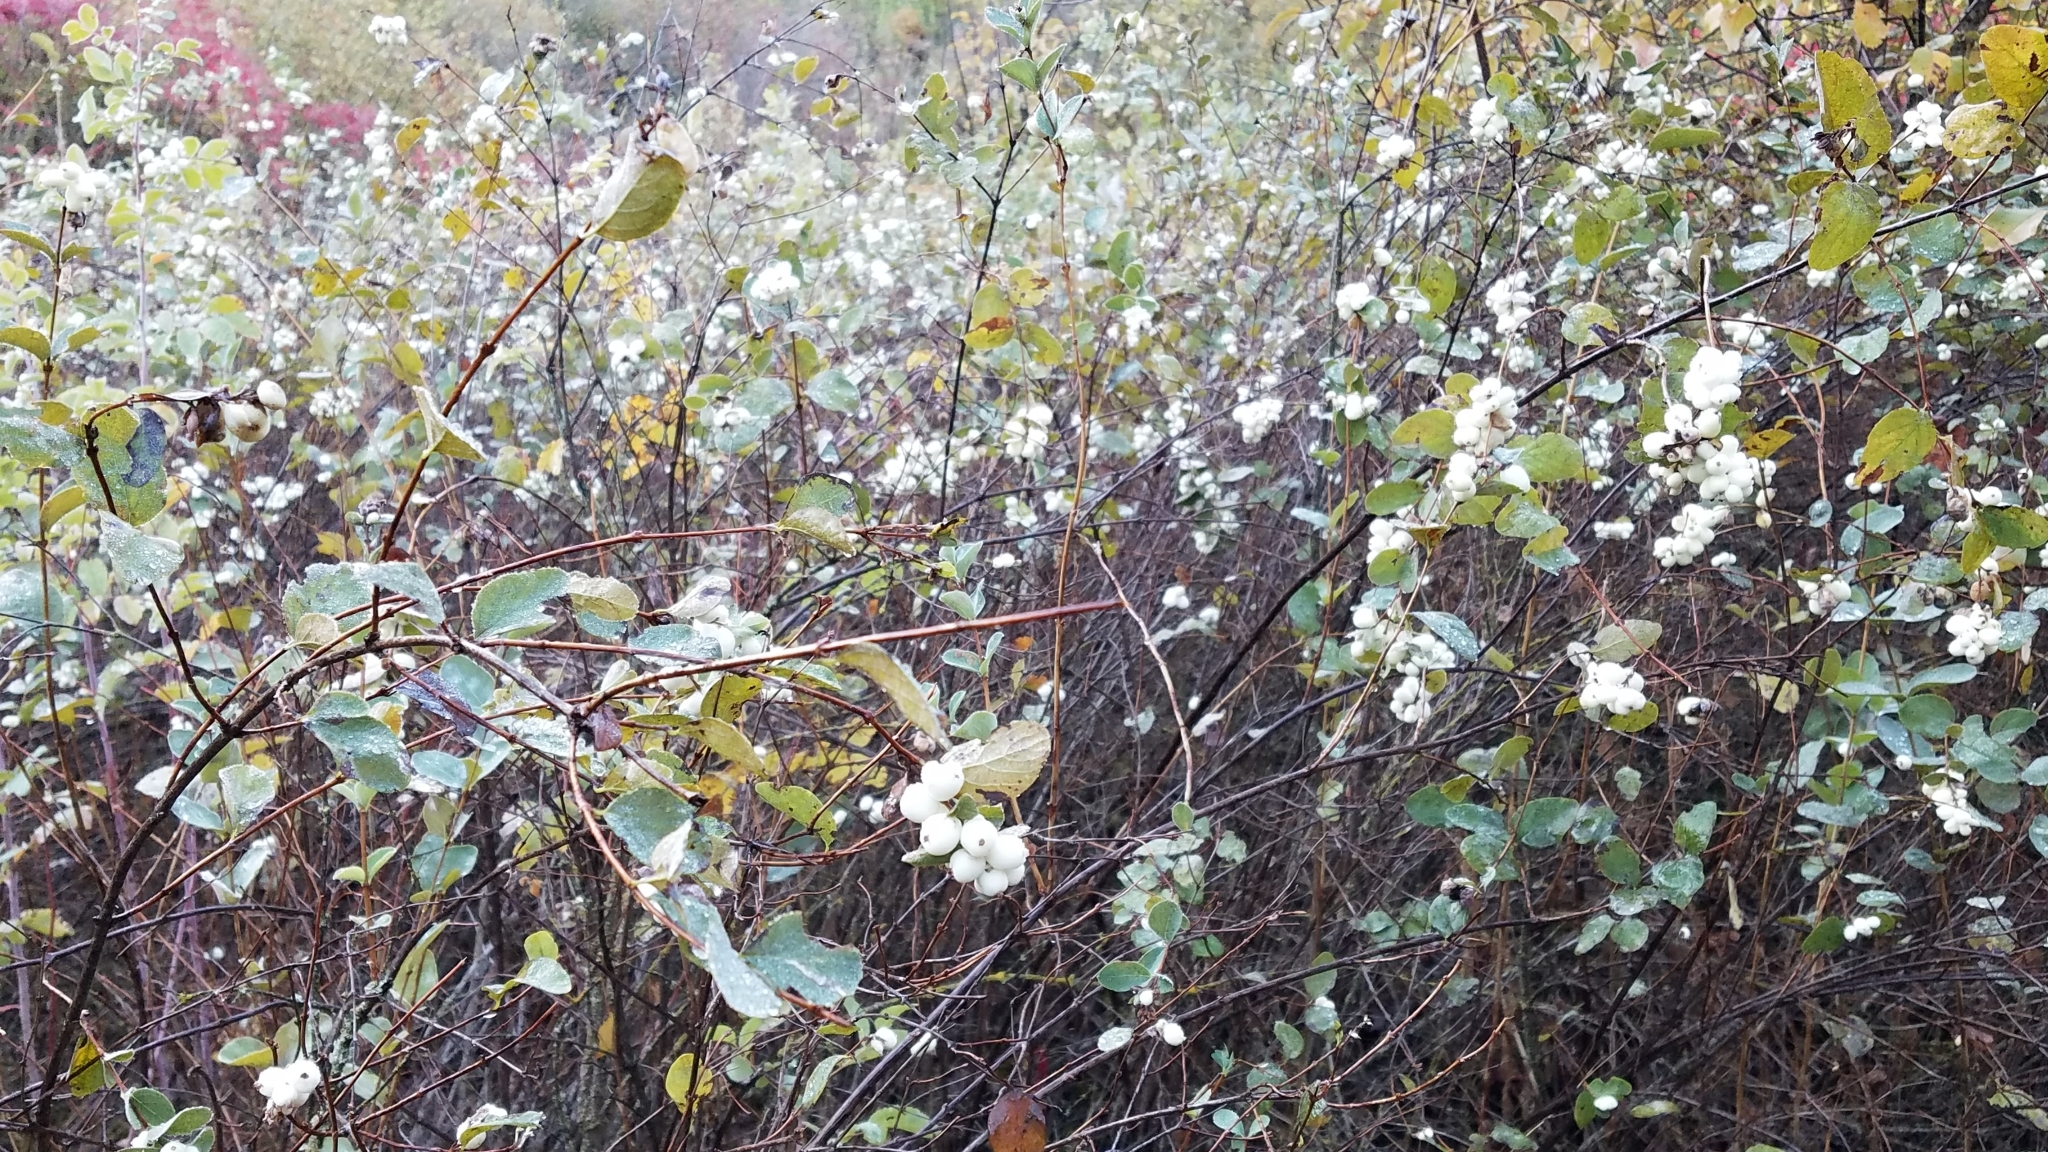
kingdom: Plantae
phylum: Tracheophyta
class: Magnoliopsida
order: Dipsacales
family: Caprifoliaceae
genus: Symphoricarpos
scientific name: Symphoricarpos albus
